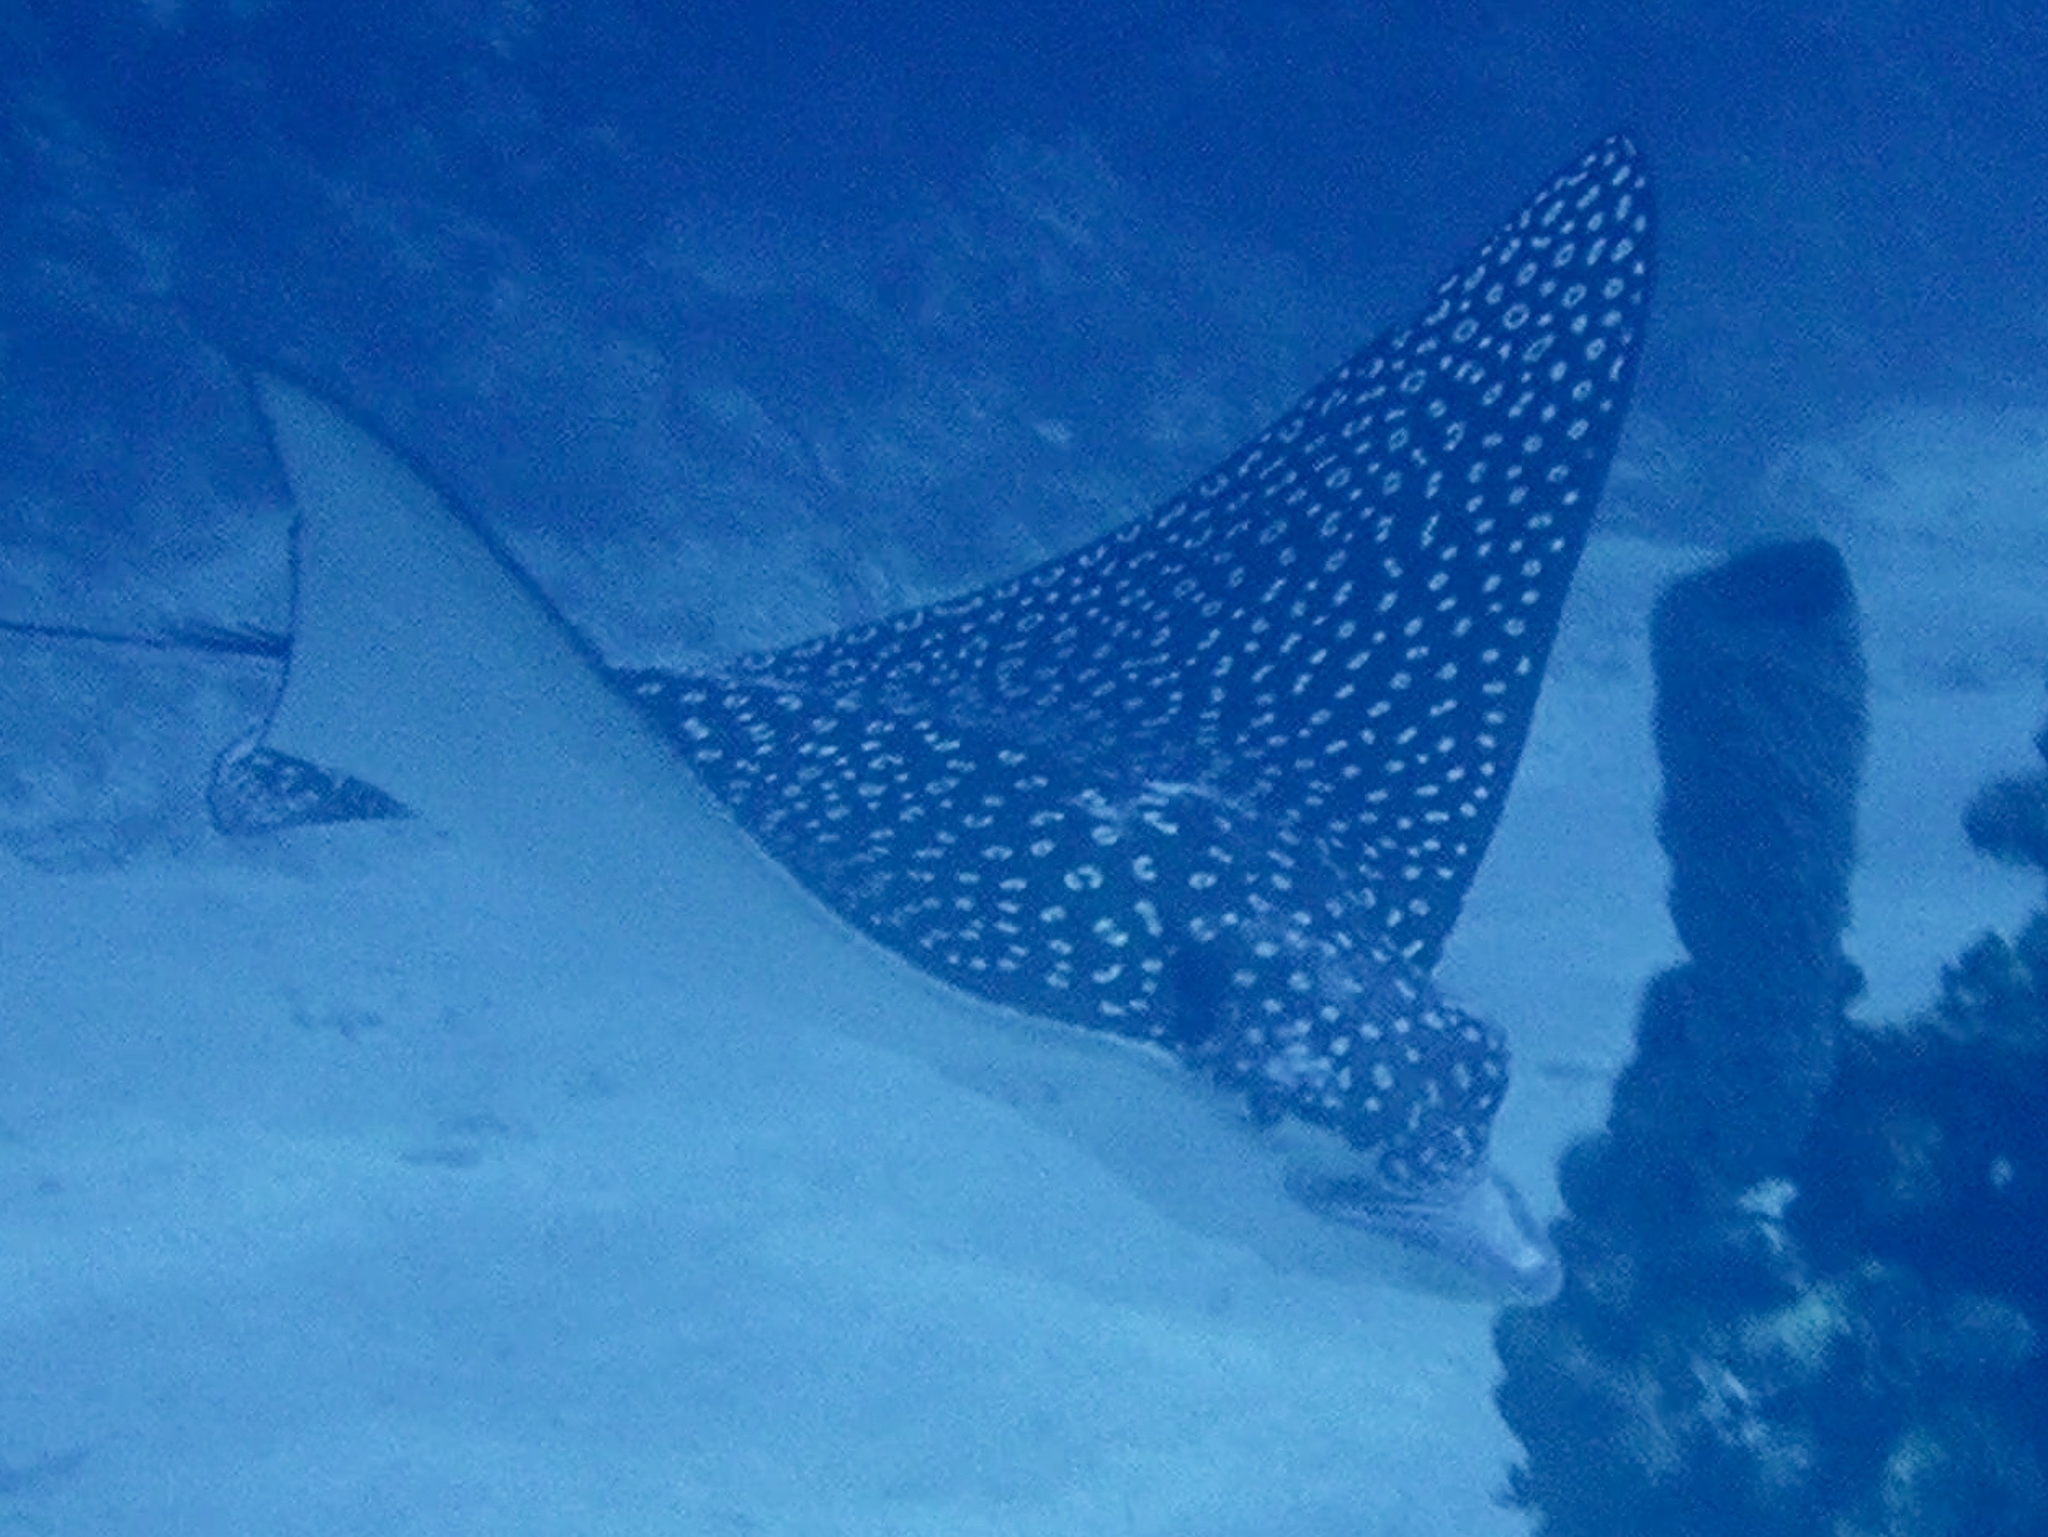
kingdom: Animalia
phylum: Chordata
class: Elasmobranchii
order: Myliobatiformes
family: Myliobatidae
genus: Aetobatus
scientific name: Aetobatus narinari
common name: Spotted eagle ray
